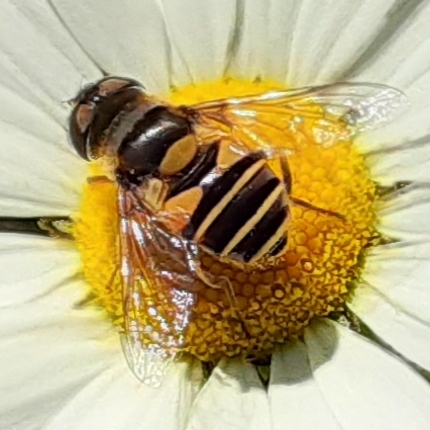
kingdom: Animalia
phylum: Arthropoda
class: Insecta
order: Diptera
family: Syrphidae
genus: Eristalis
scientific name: Eristalis transversa
